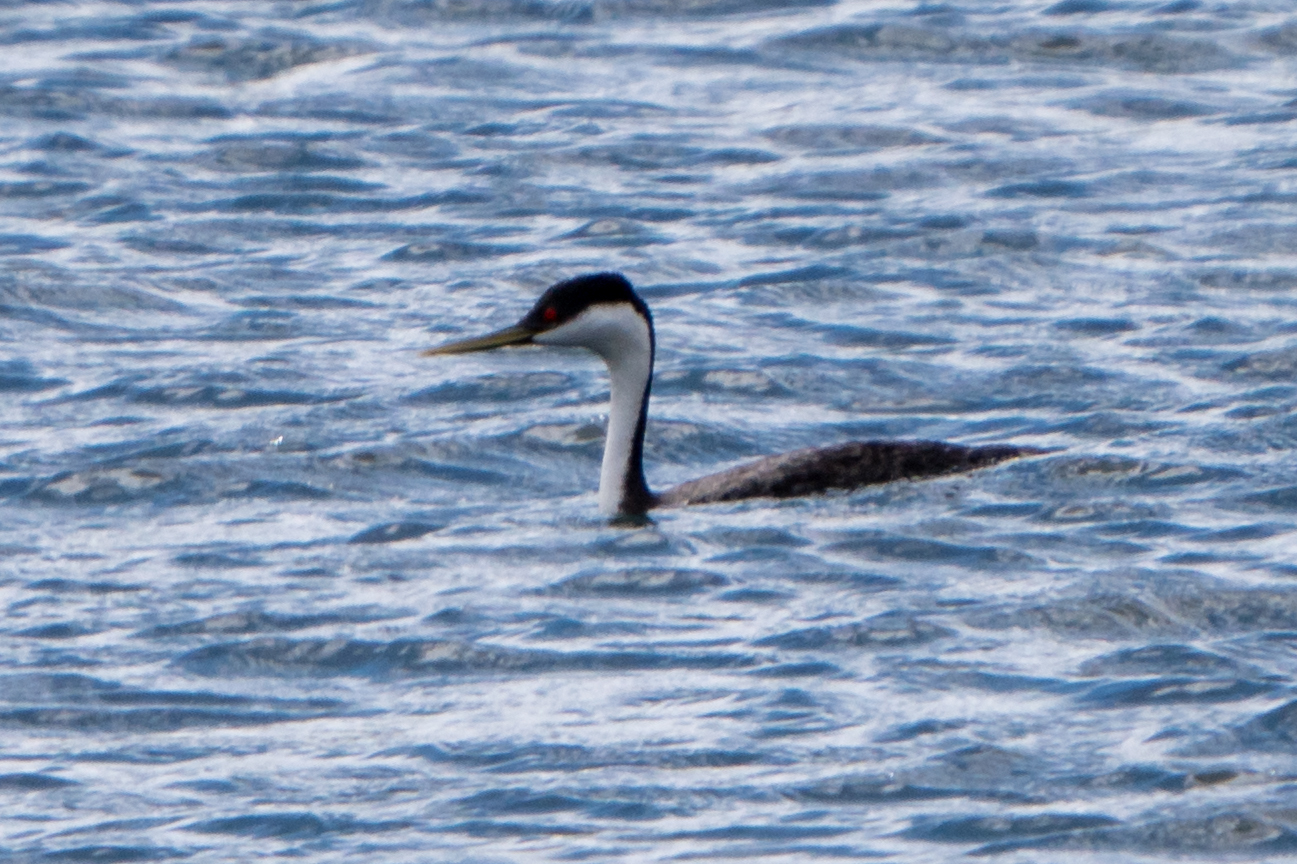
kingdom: Animalia
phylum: Chordata
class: Aves
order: Podicipediformes
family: Podicipedidae
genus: Aechmophorus
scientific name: Aechmophorus occidentalis
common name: Western grebe
